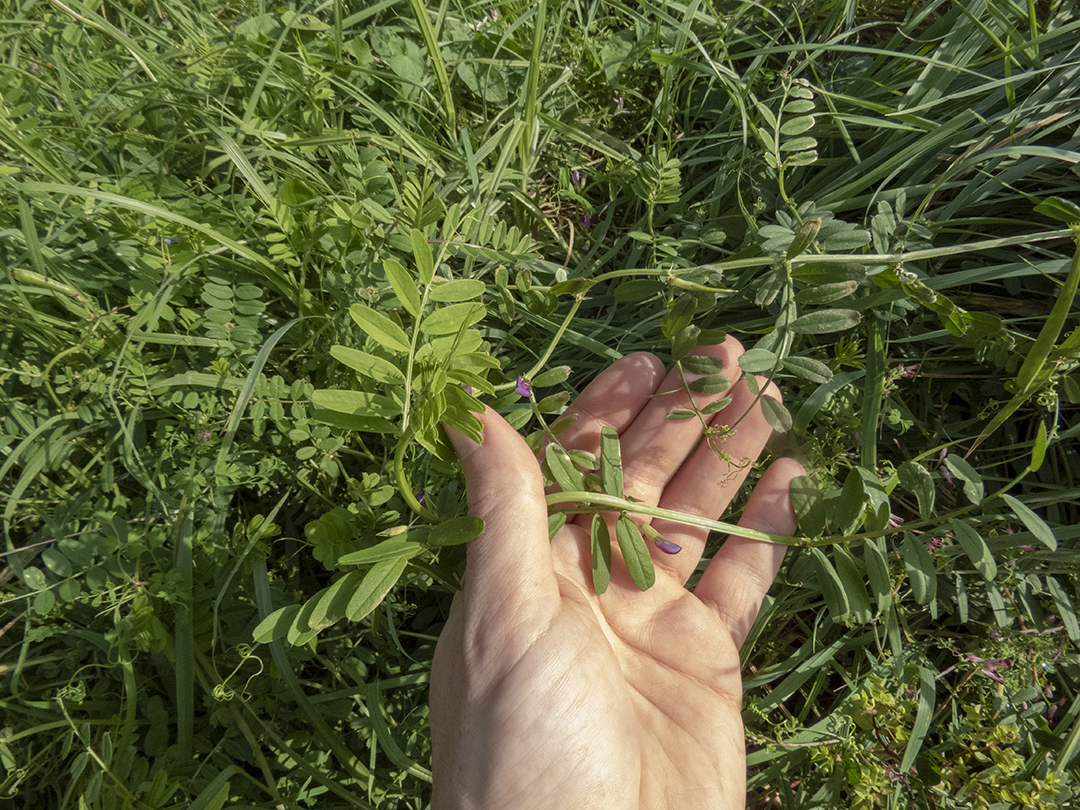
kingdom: Plantae
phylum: Tracheophyta
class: Magnoliopsida
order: Fabales
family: Fabaceae
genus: Vicia
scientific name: Vicia sativa
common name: Garden vetch
